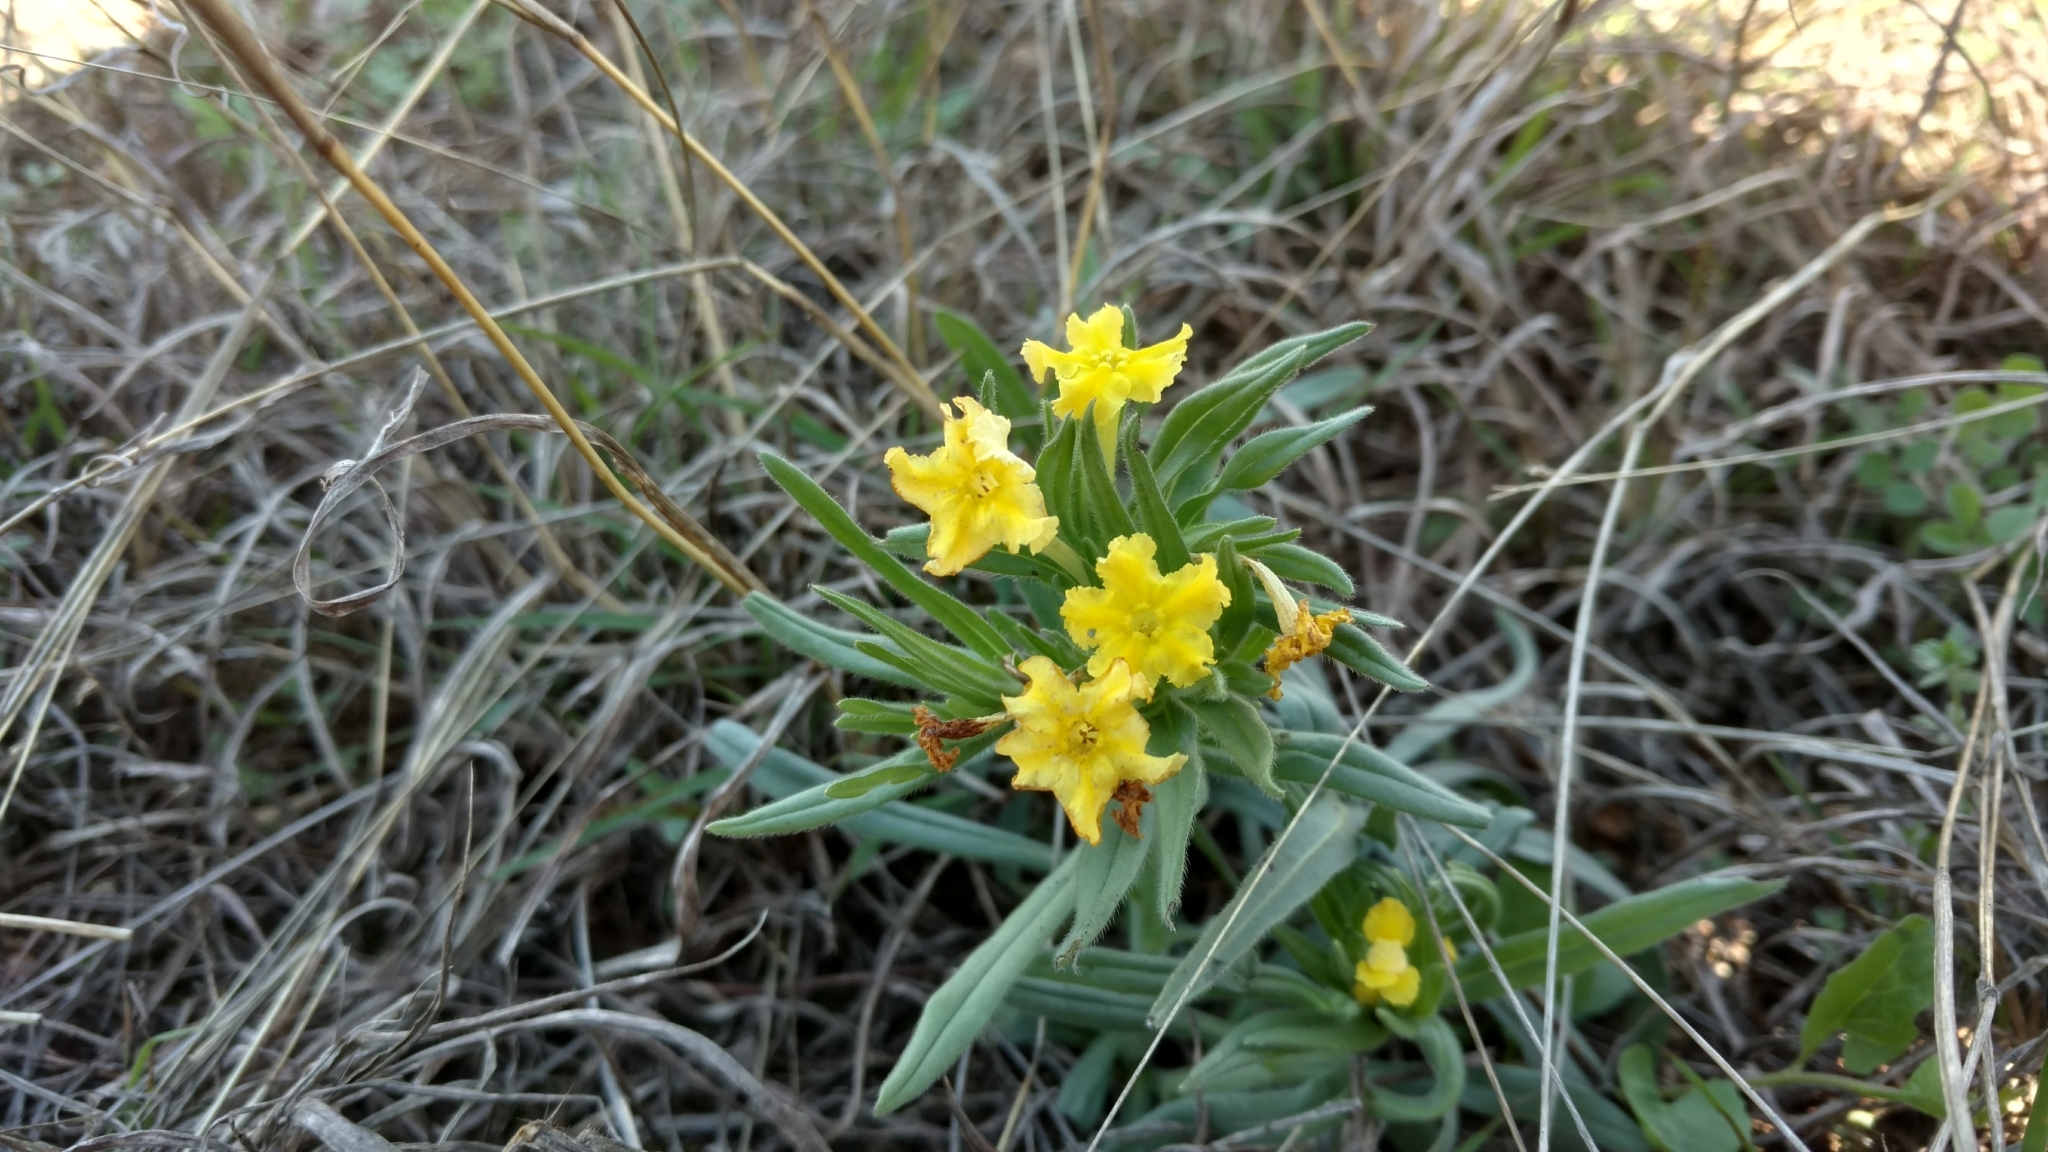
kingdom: Plantae
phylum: Tracheophyta
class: Magnoliopsida
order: Boraginales
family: Boraginaceae
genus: Lithospermum
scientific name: Lithospermum incisum
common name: Fringed gromwell
